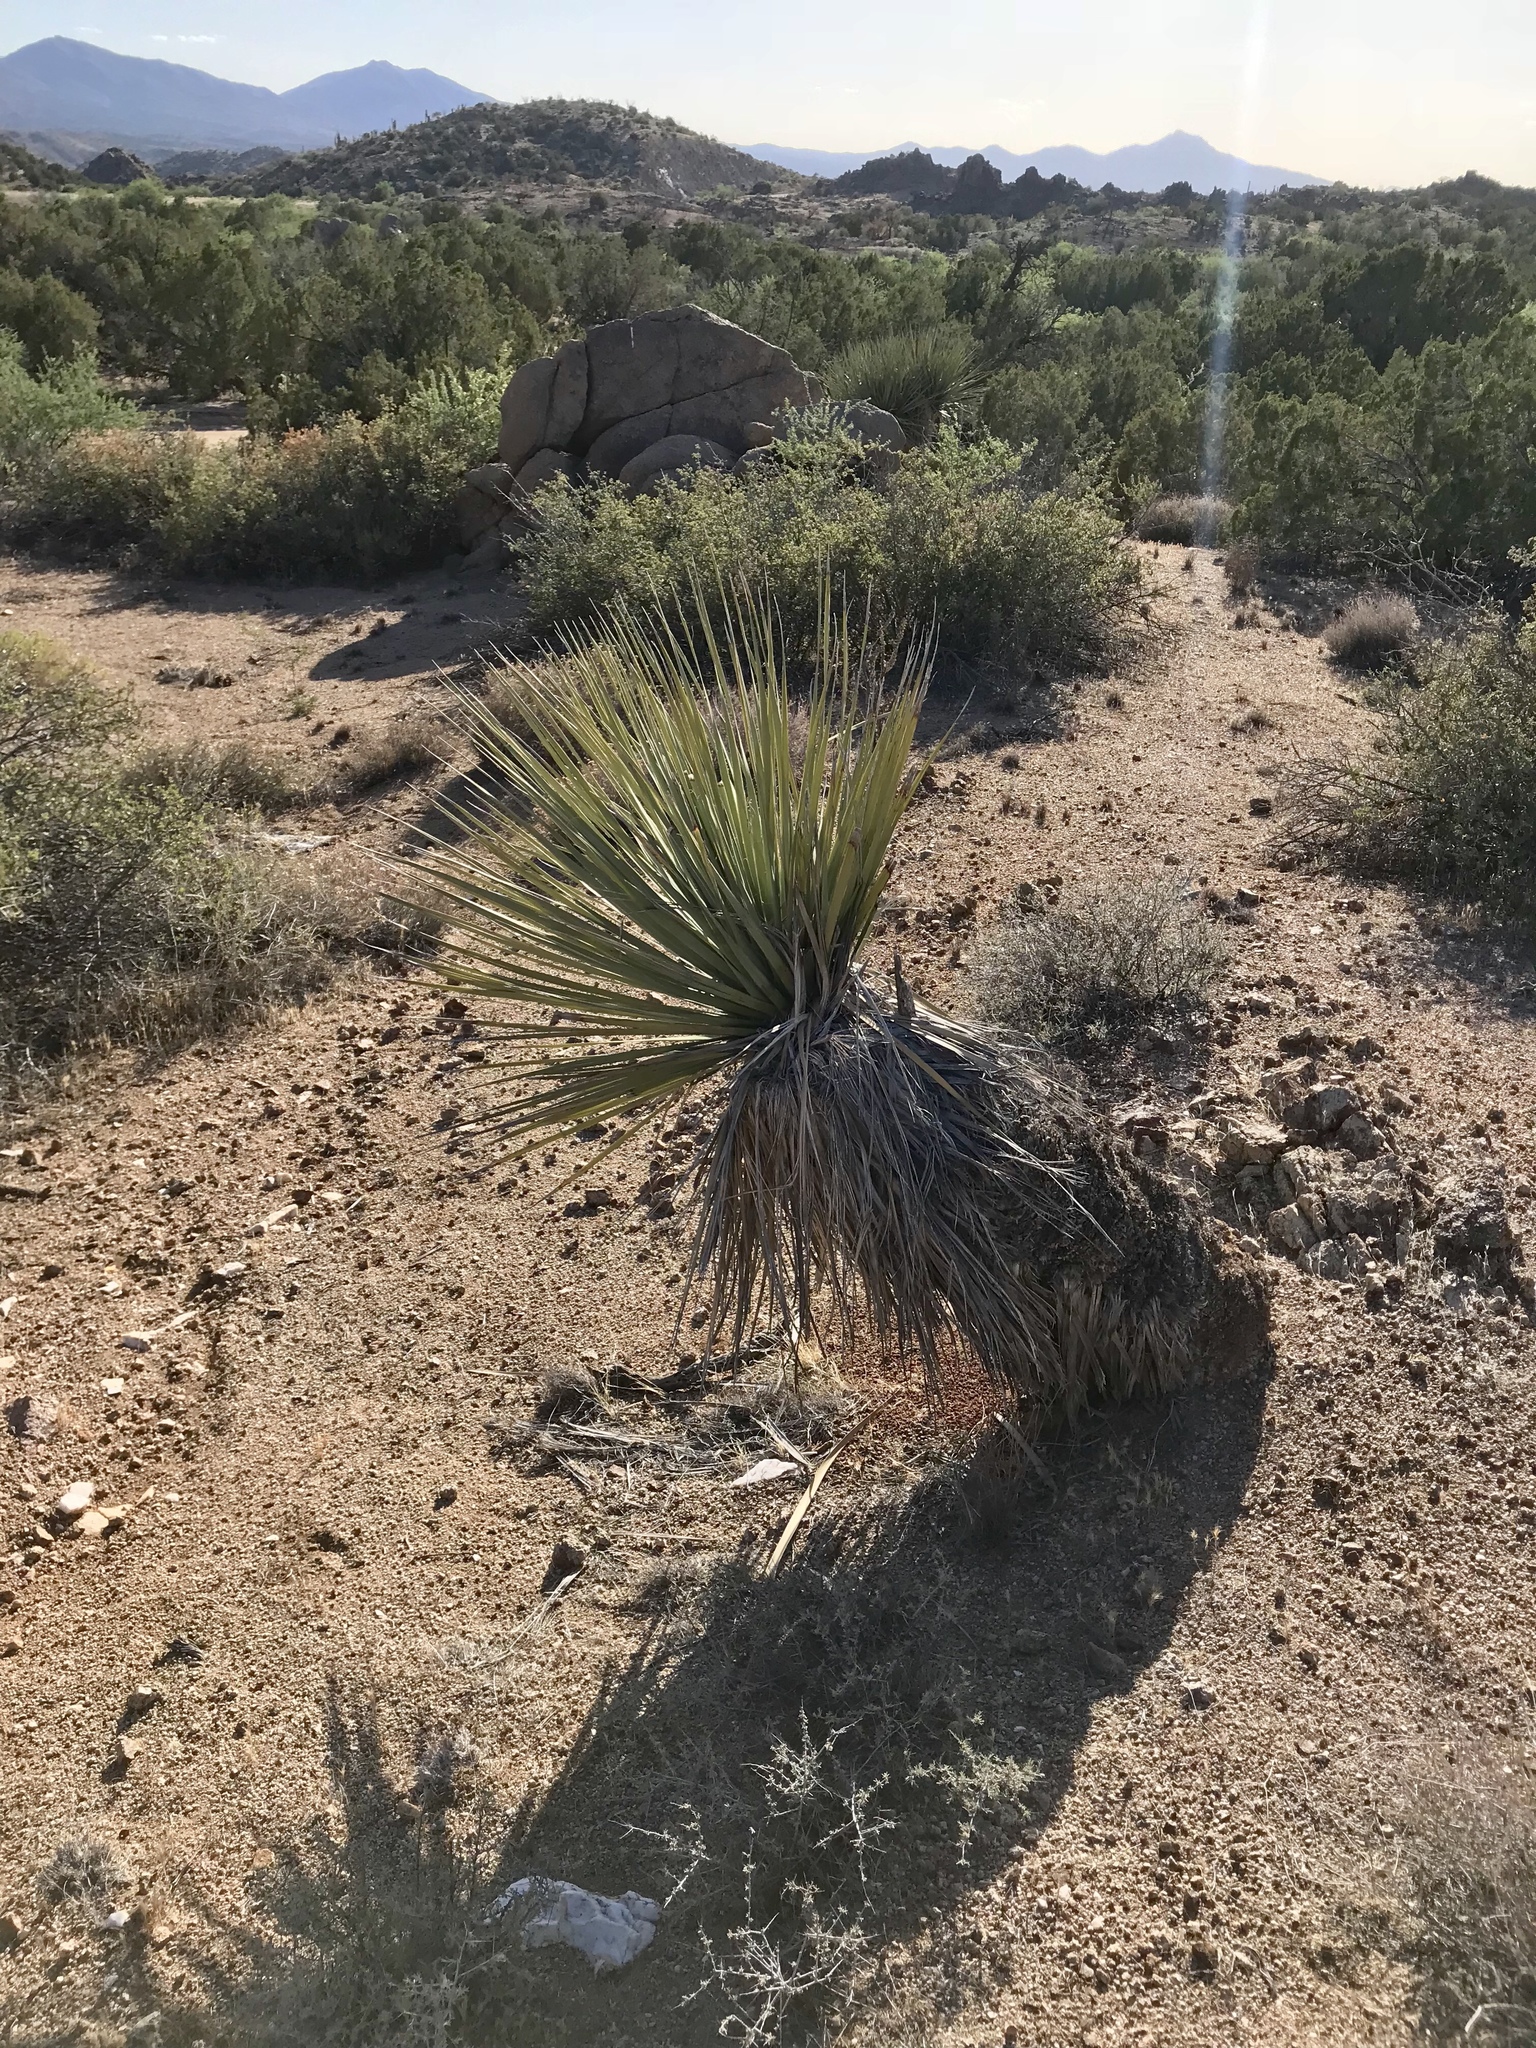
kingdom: Plantae
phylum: Tracheophyta
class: Liliopsida
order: Asparagales
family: Asparagaceae
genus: Nolina
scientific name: Nolina bigelovii
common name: Bigelow bear-grass
